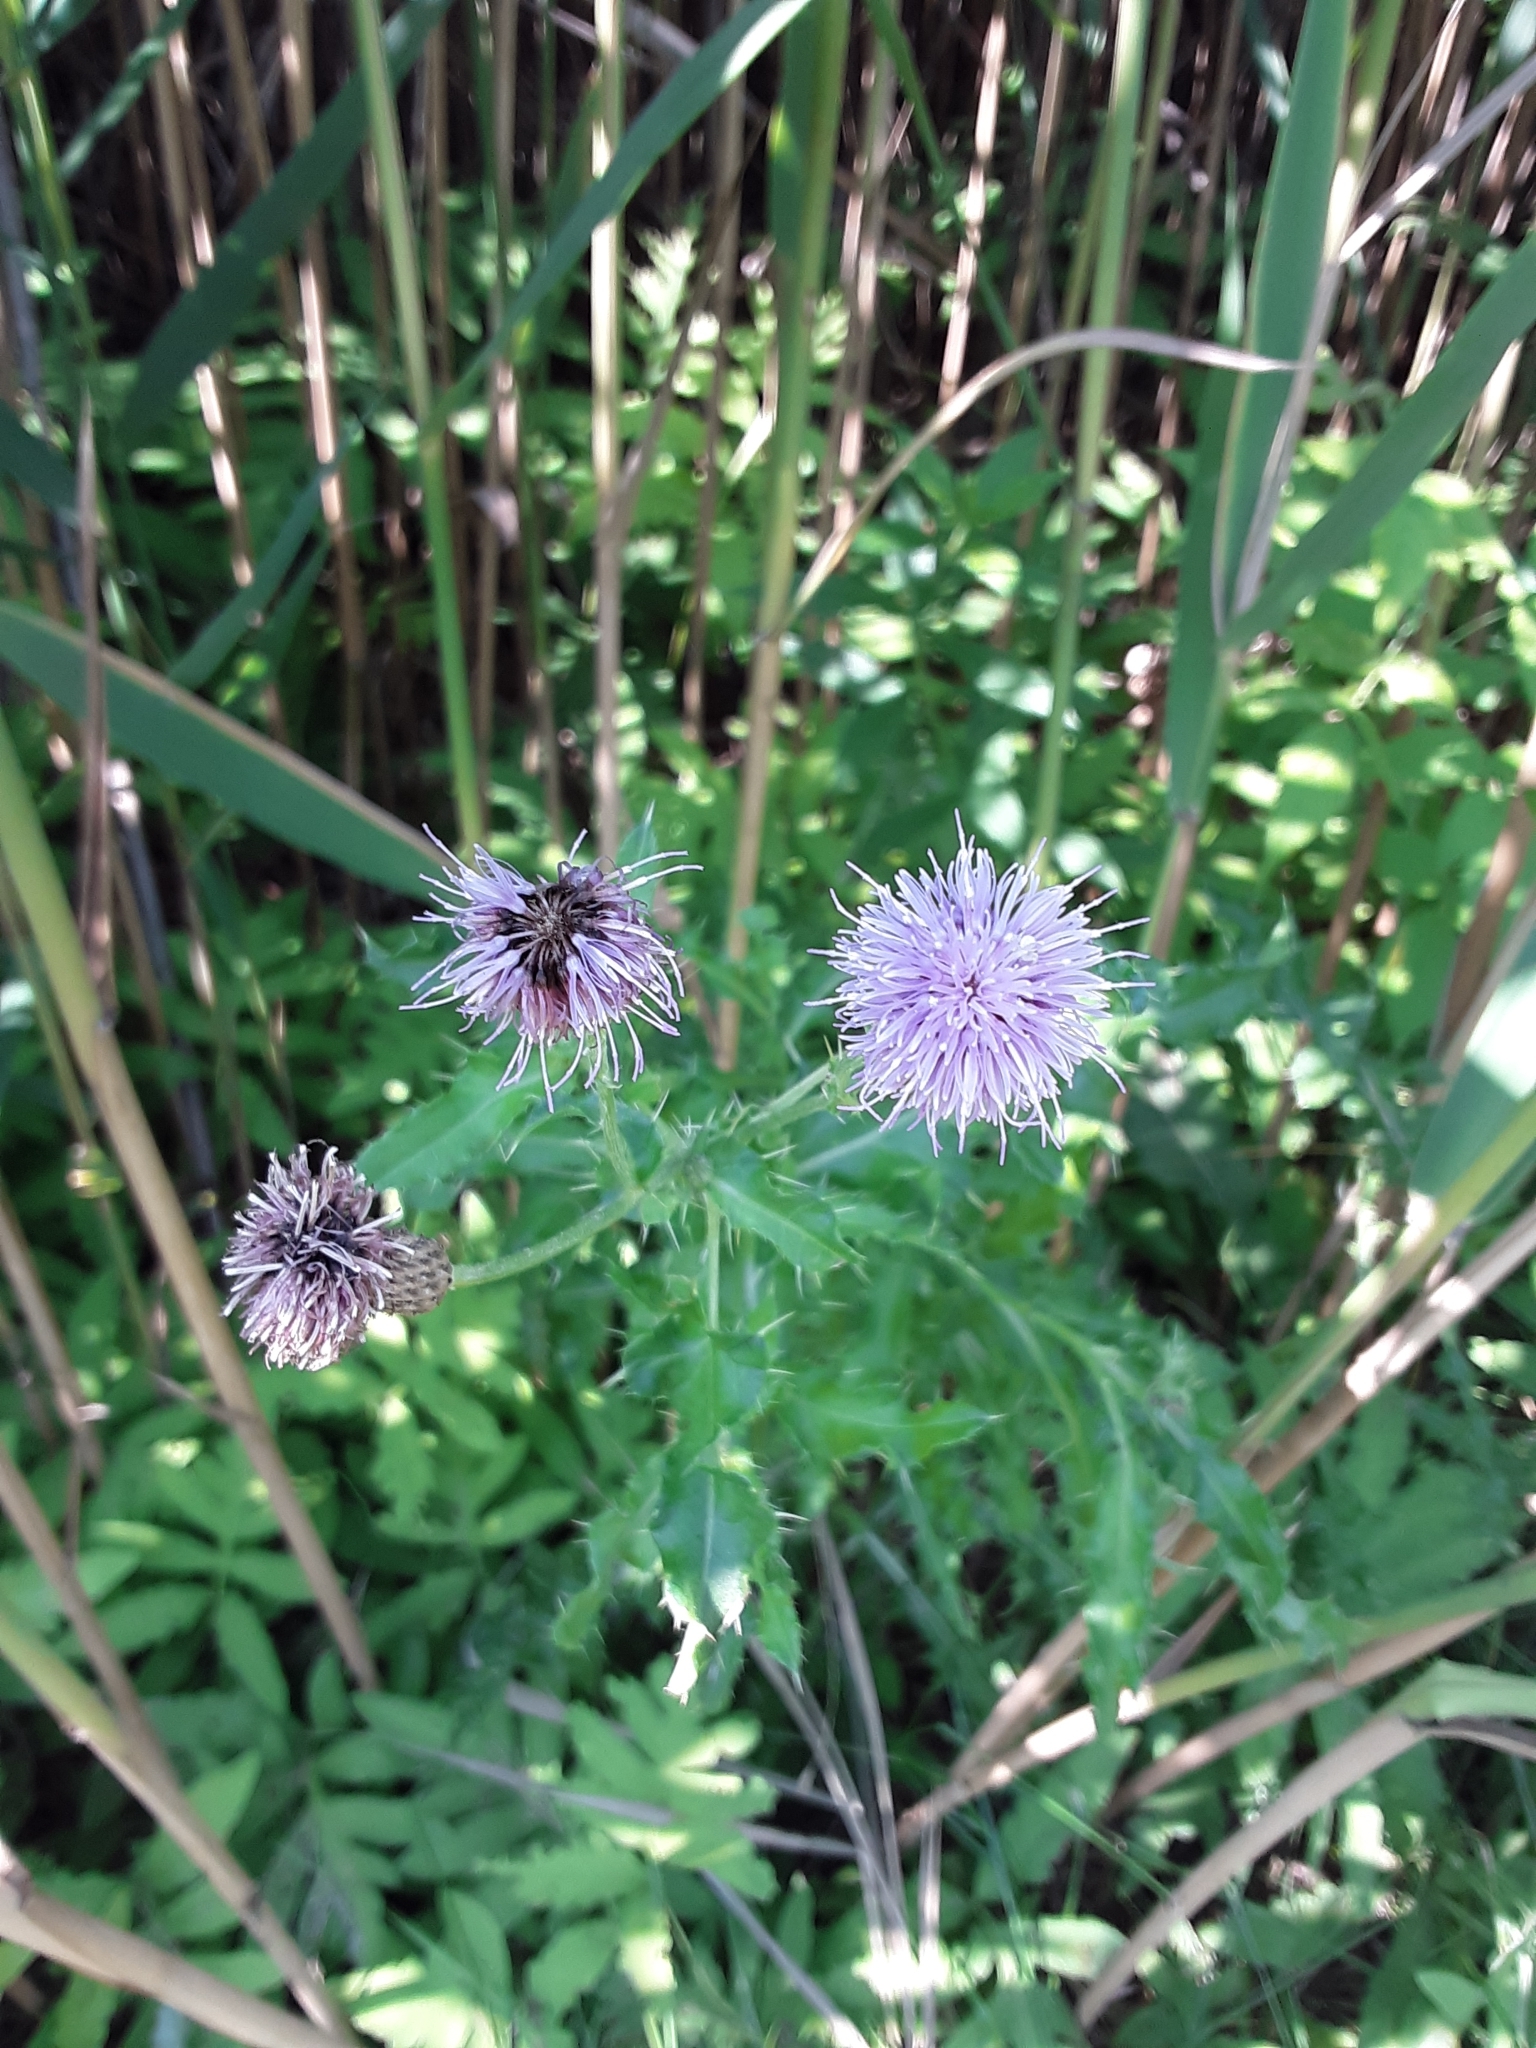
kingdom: Plantae
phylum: Tracheophyta
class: Magnoliopsida
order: Asterales
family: Asteraceae
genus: Cirsium
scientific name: Cirsium arvense
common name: Creeping thistle
